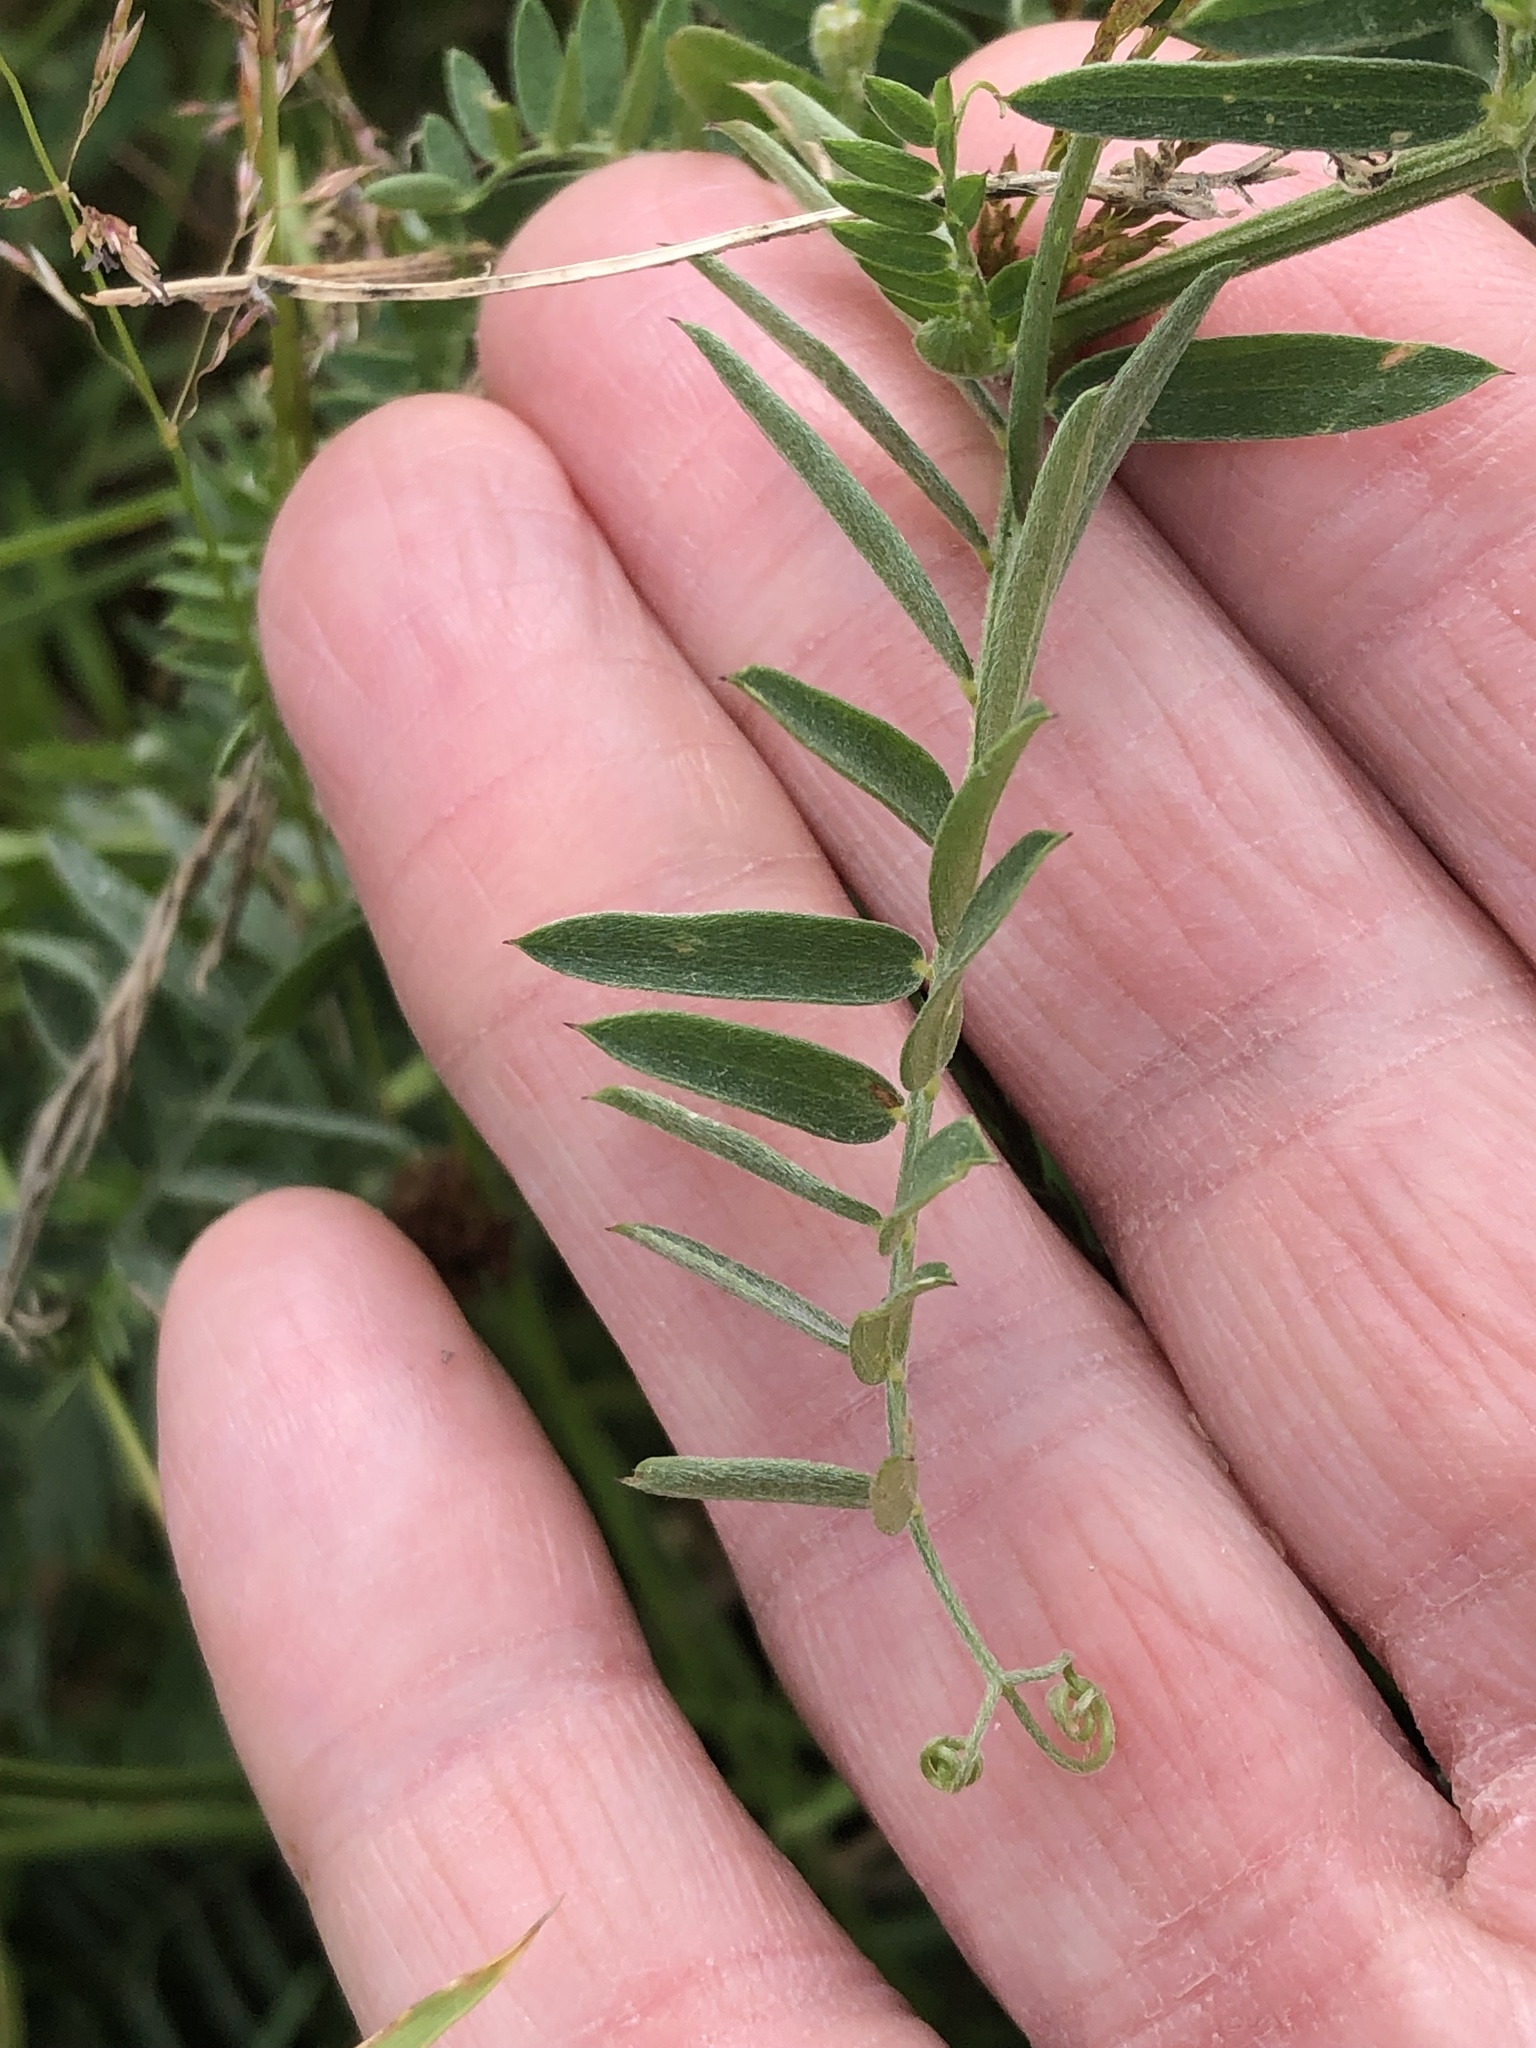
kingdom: Plantae
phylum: Tracheophyta
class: Magnoliopsida
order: Fabales
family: Fabaceae
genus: Vicia
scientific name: Vicia cracca
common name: Bird vetch
